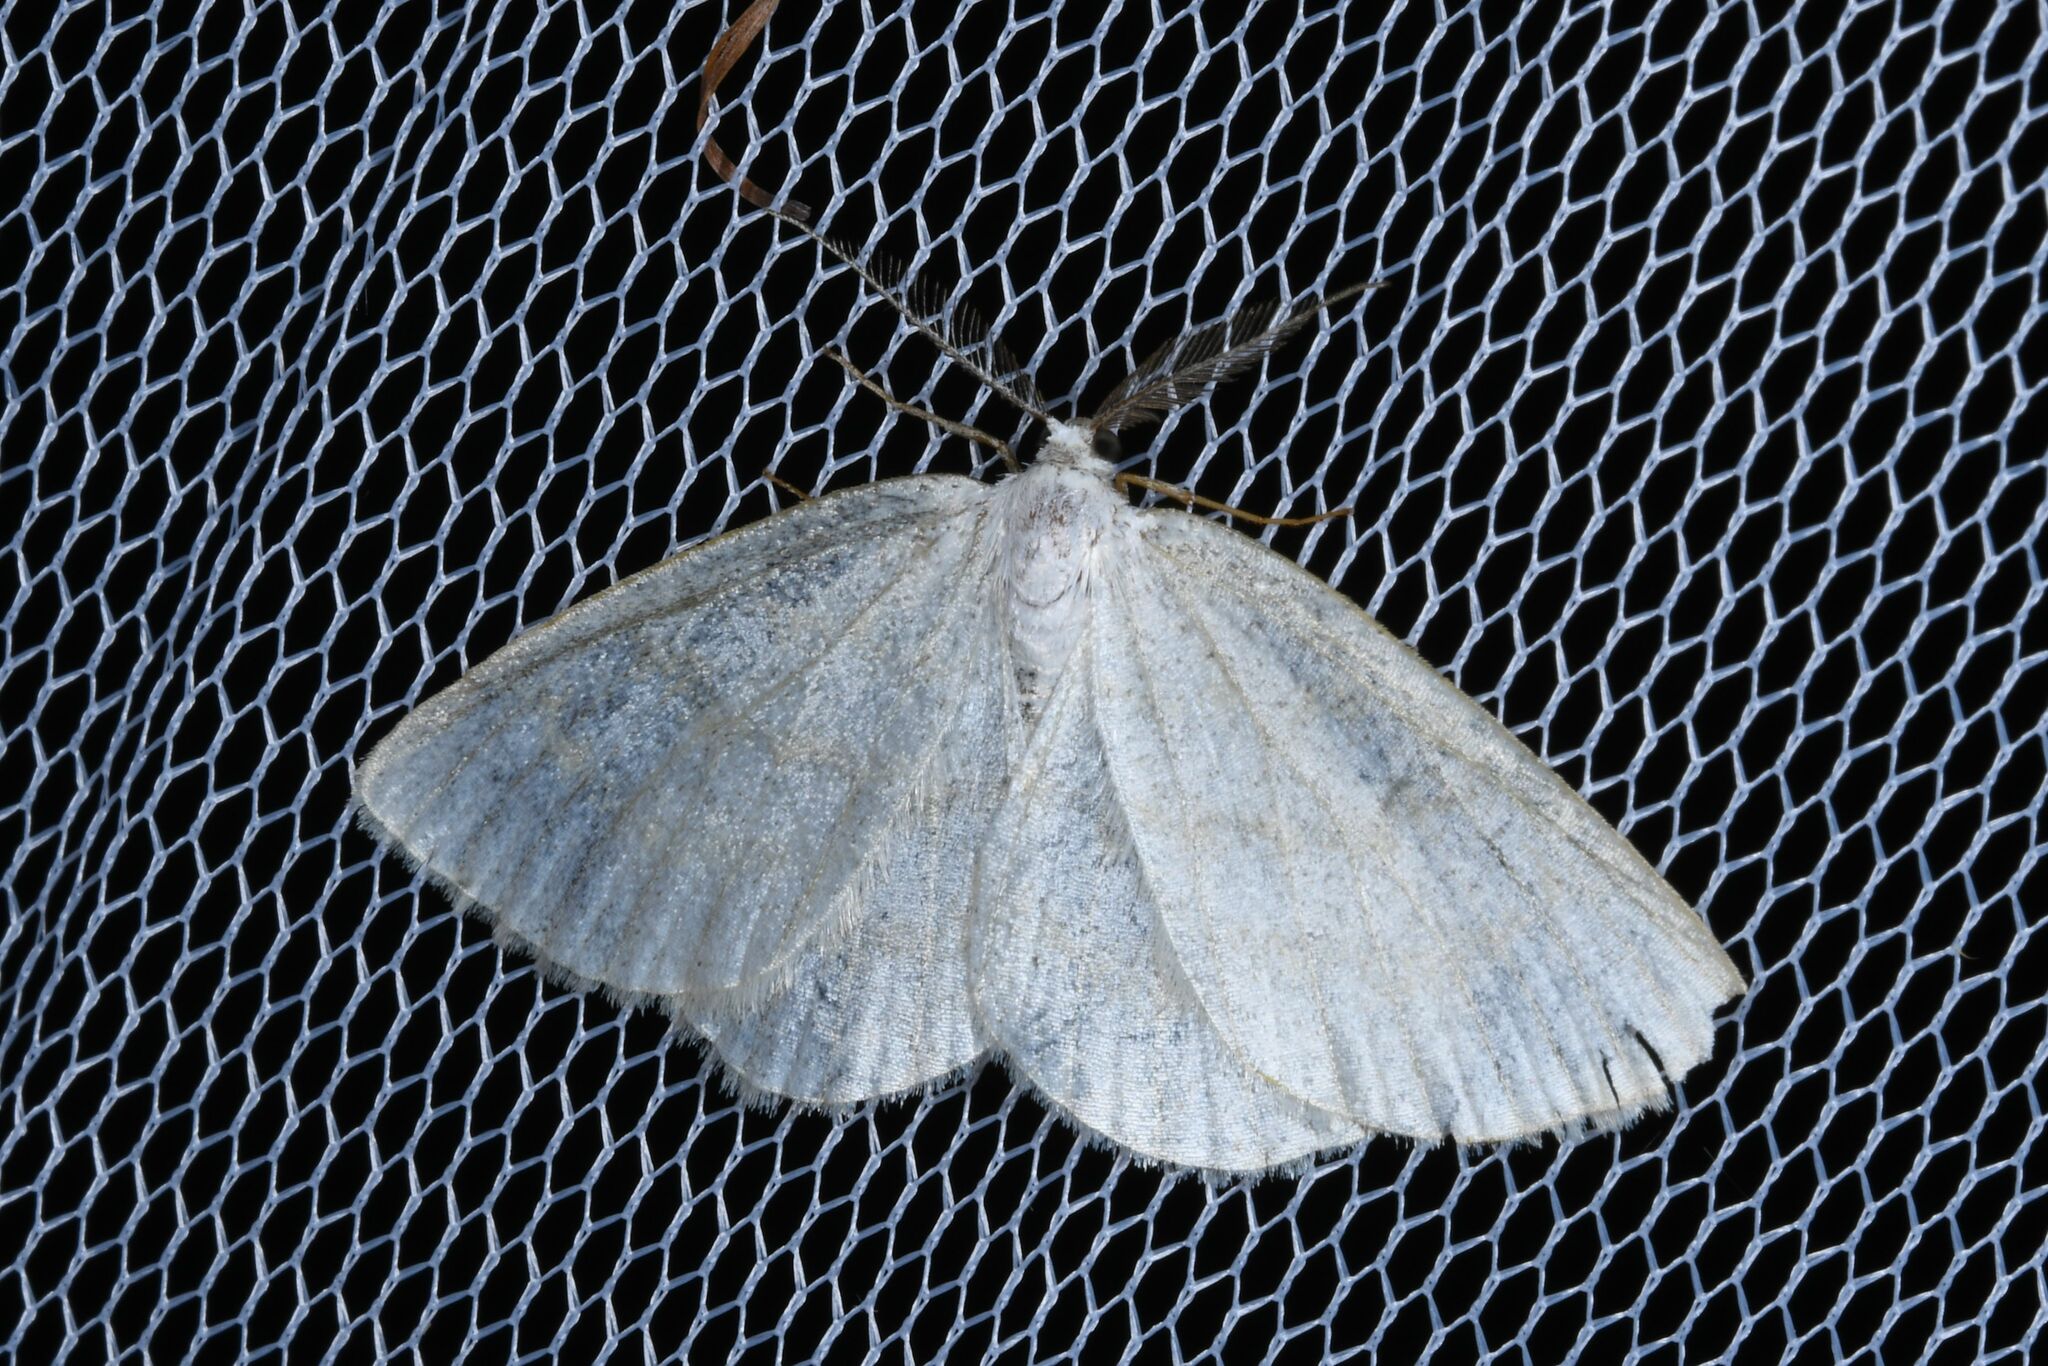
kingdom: Animalia
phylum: Arthropoda
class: Insecta
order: Lepidoptera
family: Geometridae
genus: Cabera
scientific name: Cabera exanthemata
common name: Common wave
